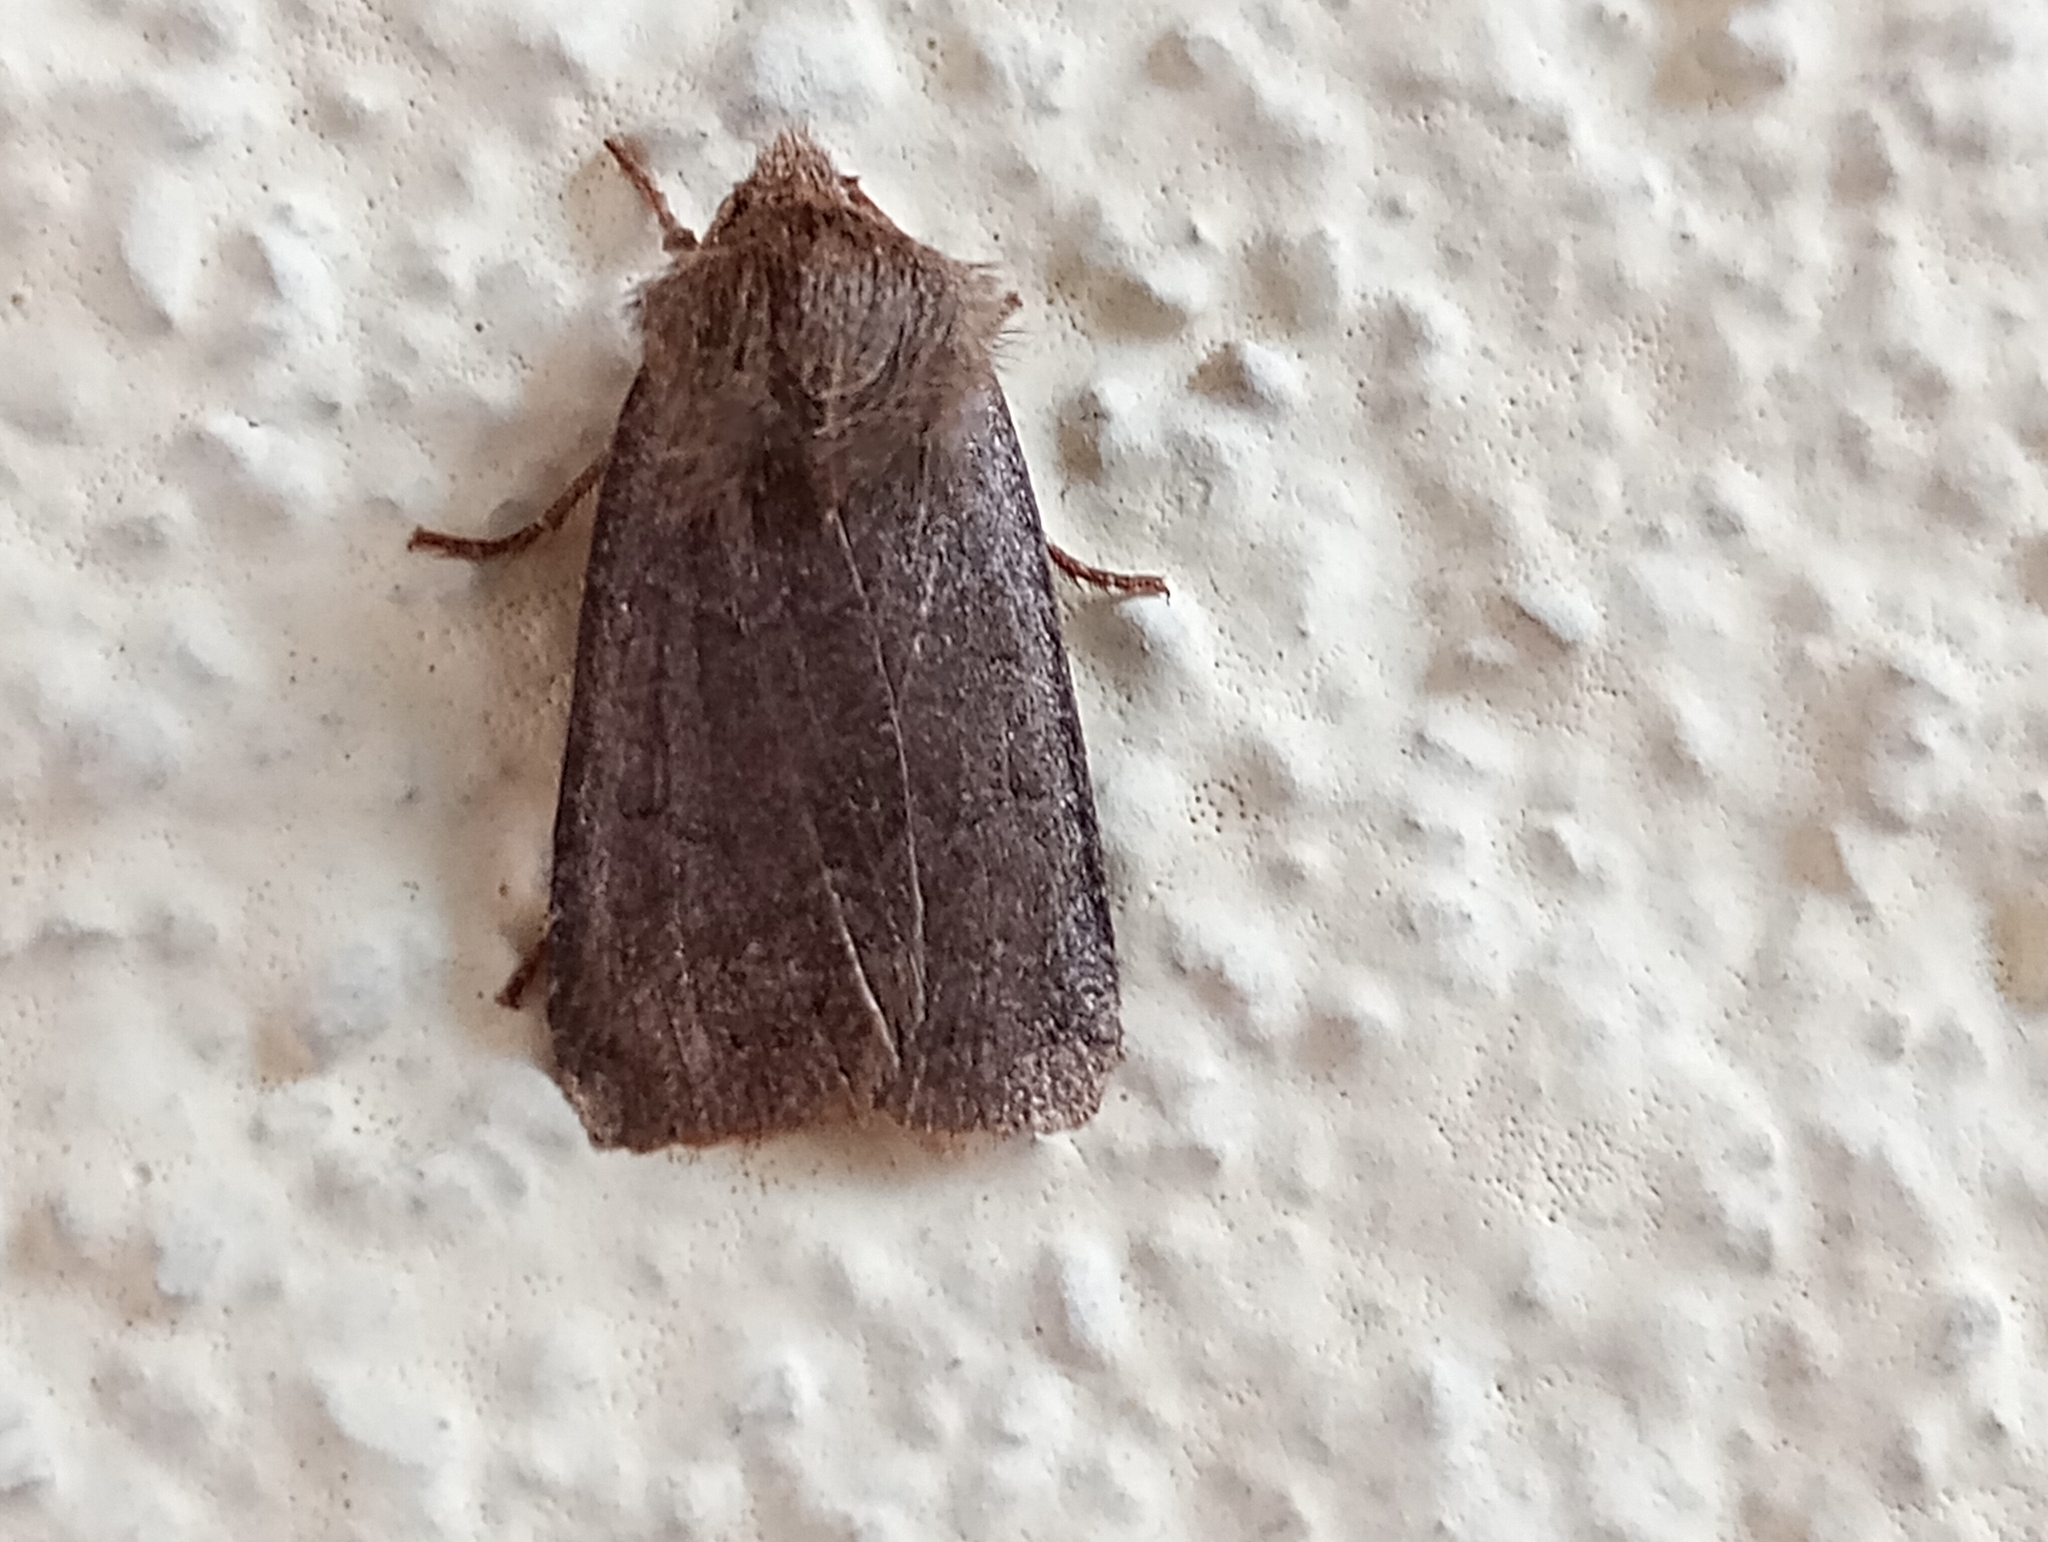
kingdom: Animalia
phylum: Arthropoda
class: Insecta
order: Lepidoptera
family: Noctuidae
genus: Conistra
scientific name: Conistra vaccinii
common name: Chestnut
